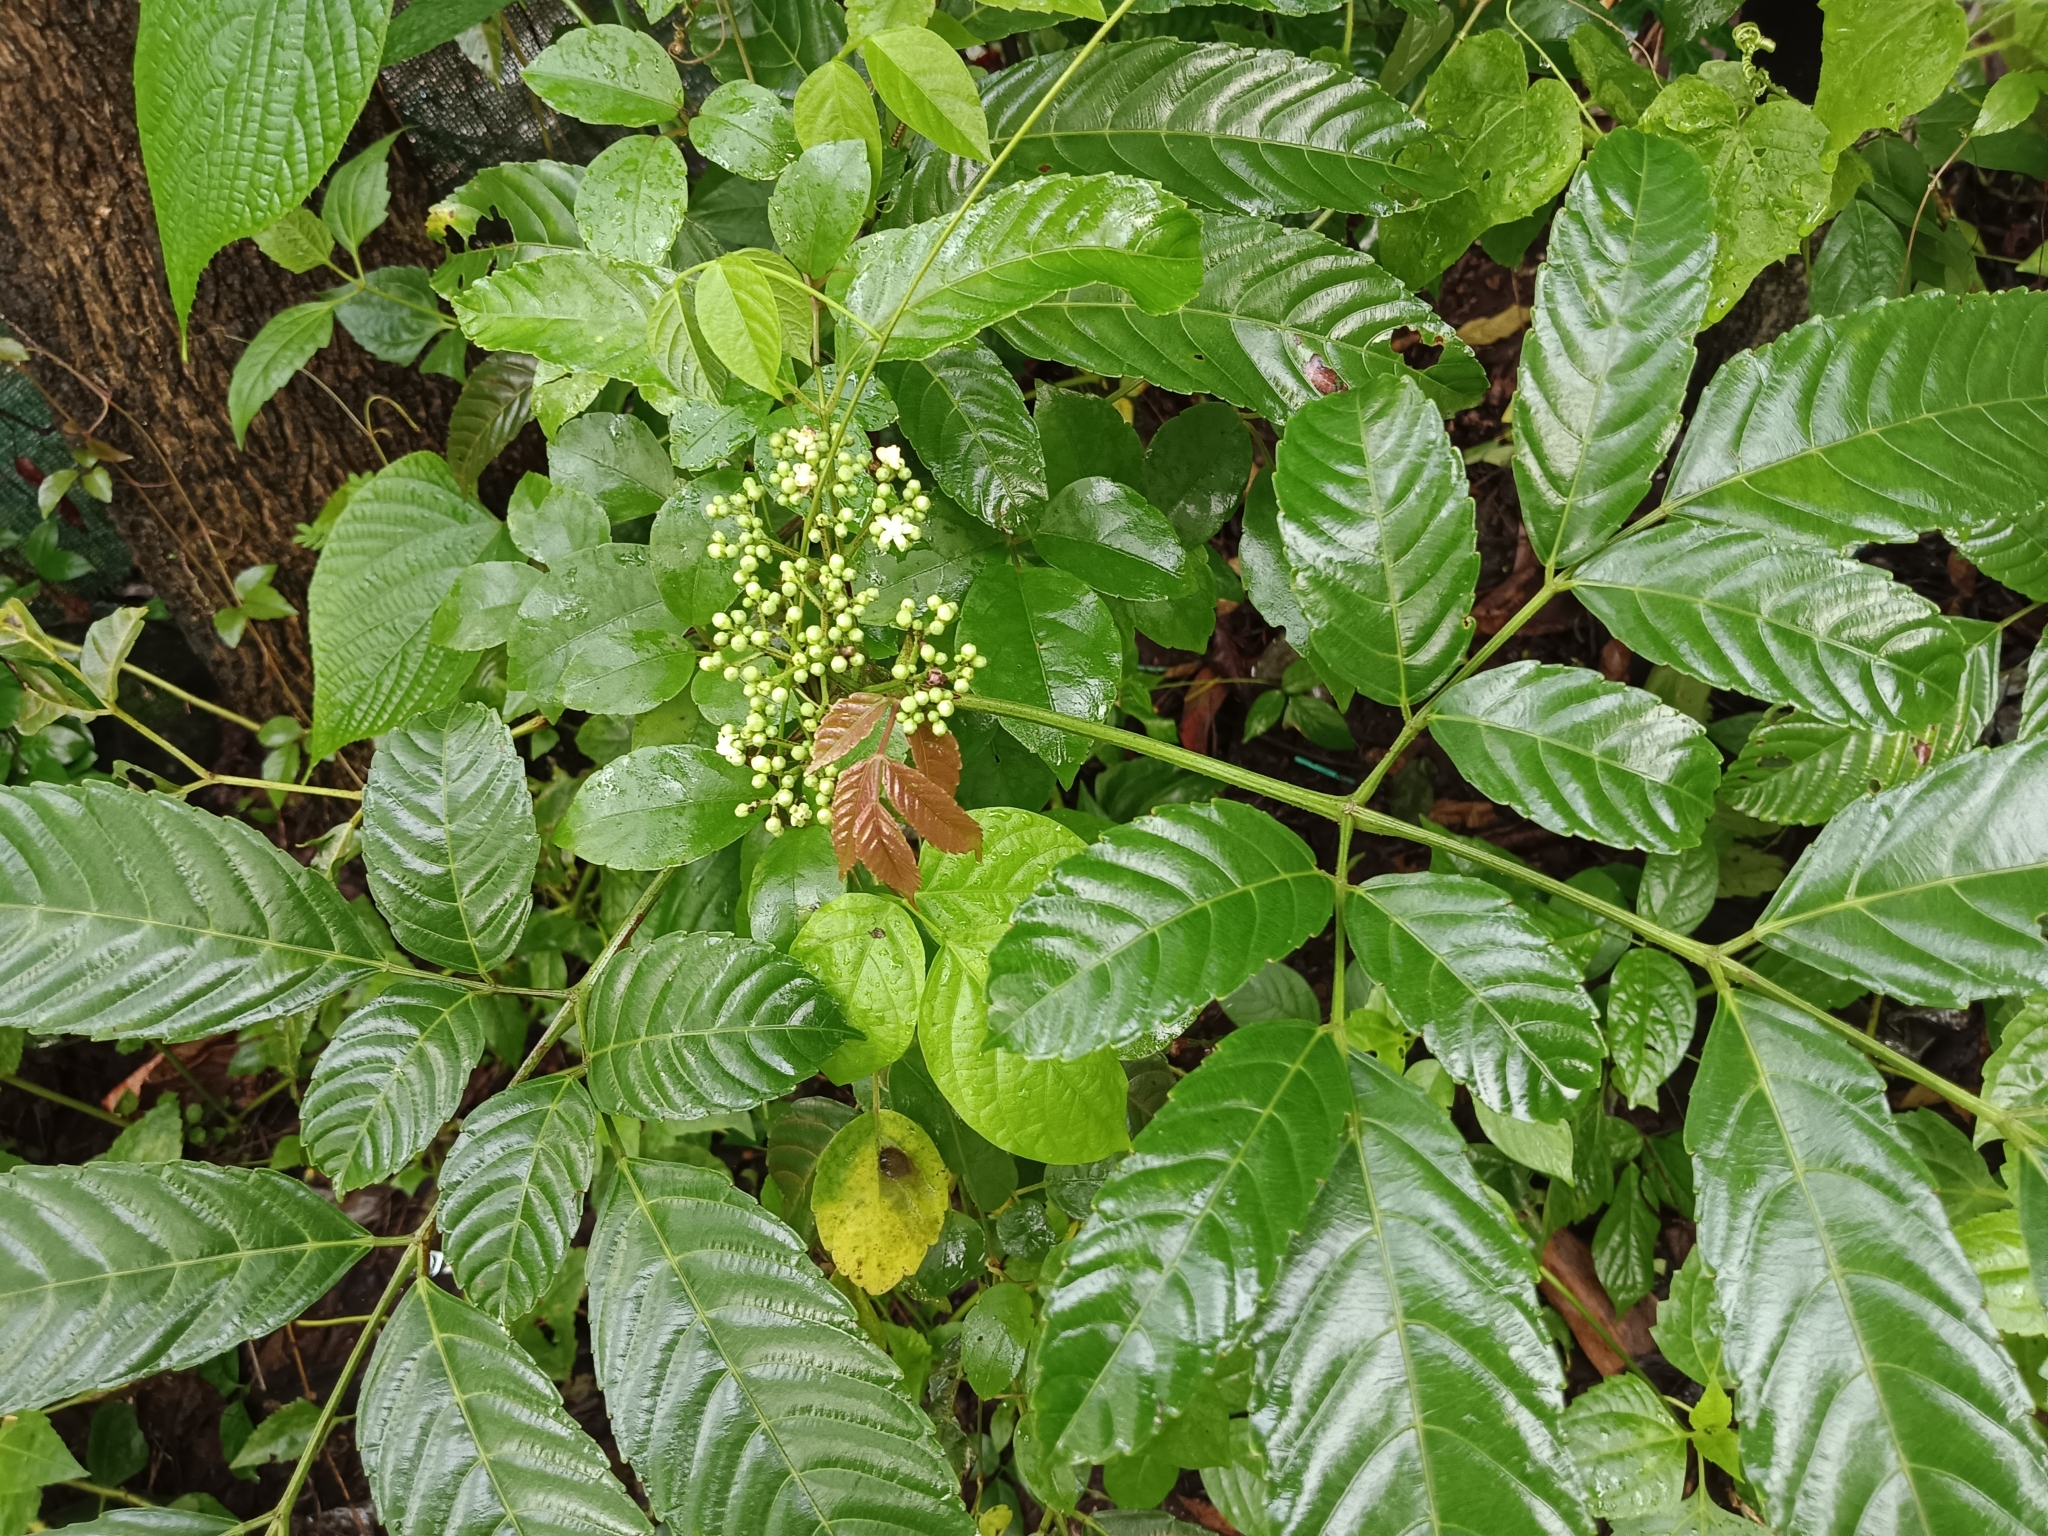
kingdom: Plantae
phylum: Tracheophyta
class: Magnoliopsida
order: Vitales
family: Vitaceae
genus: Leea
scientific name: Leea indica
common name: Bandicoot-berry
